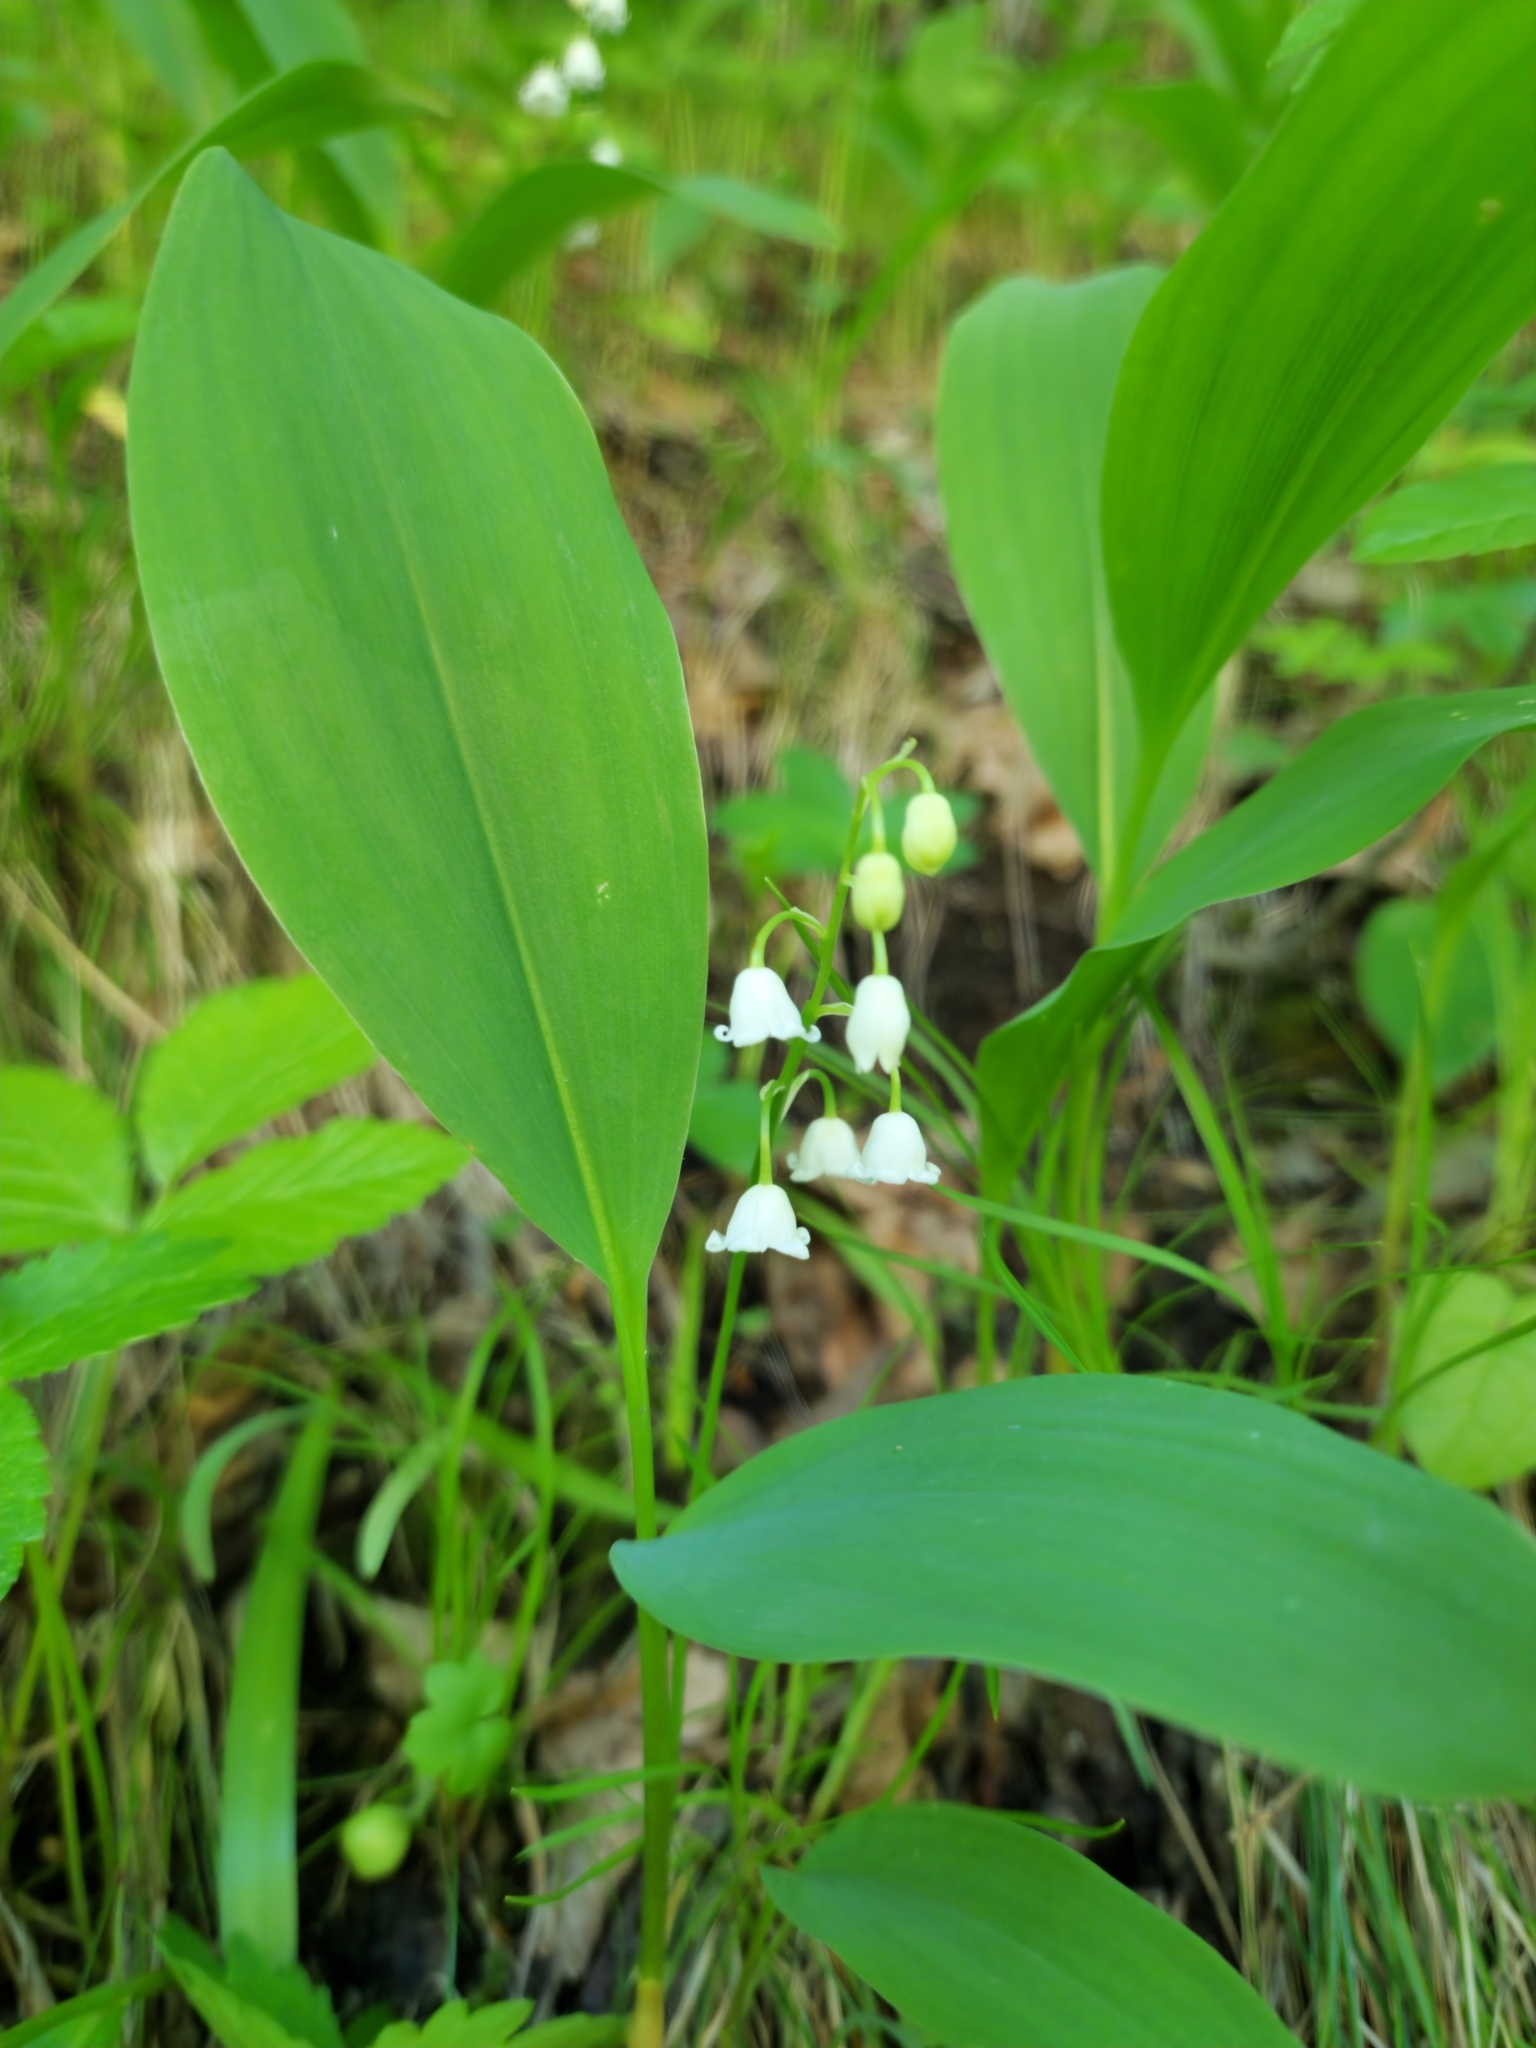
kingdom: Plantae
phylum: Tracheophyta
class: Liliopsida
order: Asparagales
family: Asparagaceae
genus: Convallaria
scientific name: Convallaria majalis
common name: Lily-of-the-valley
